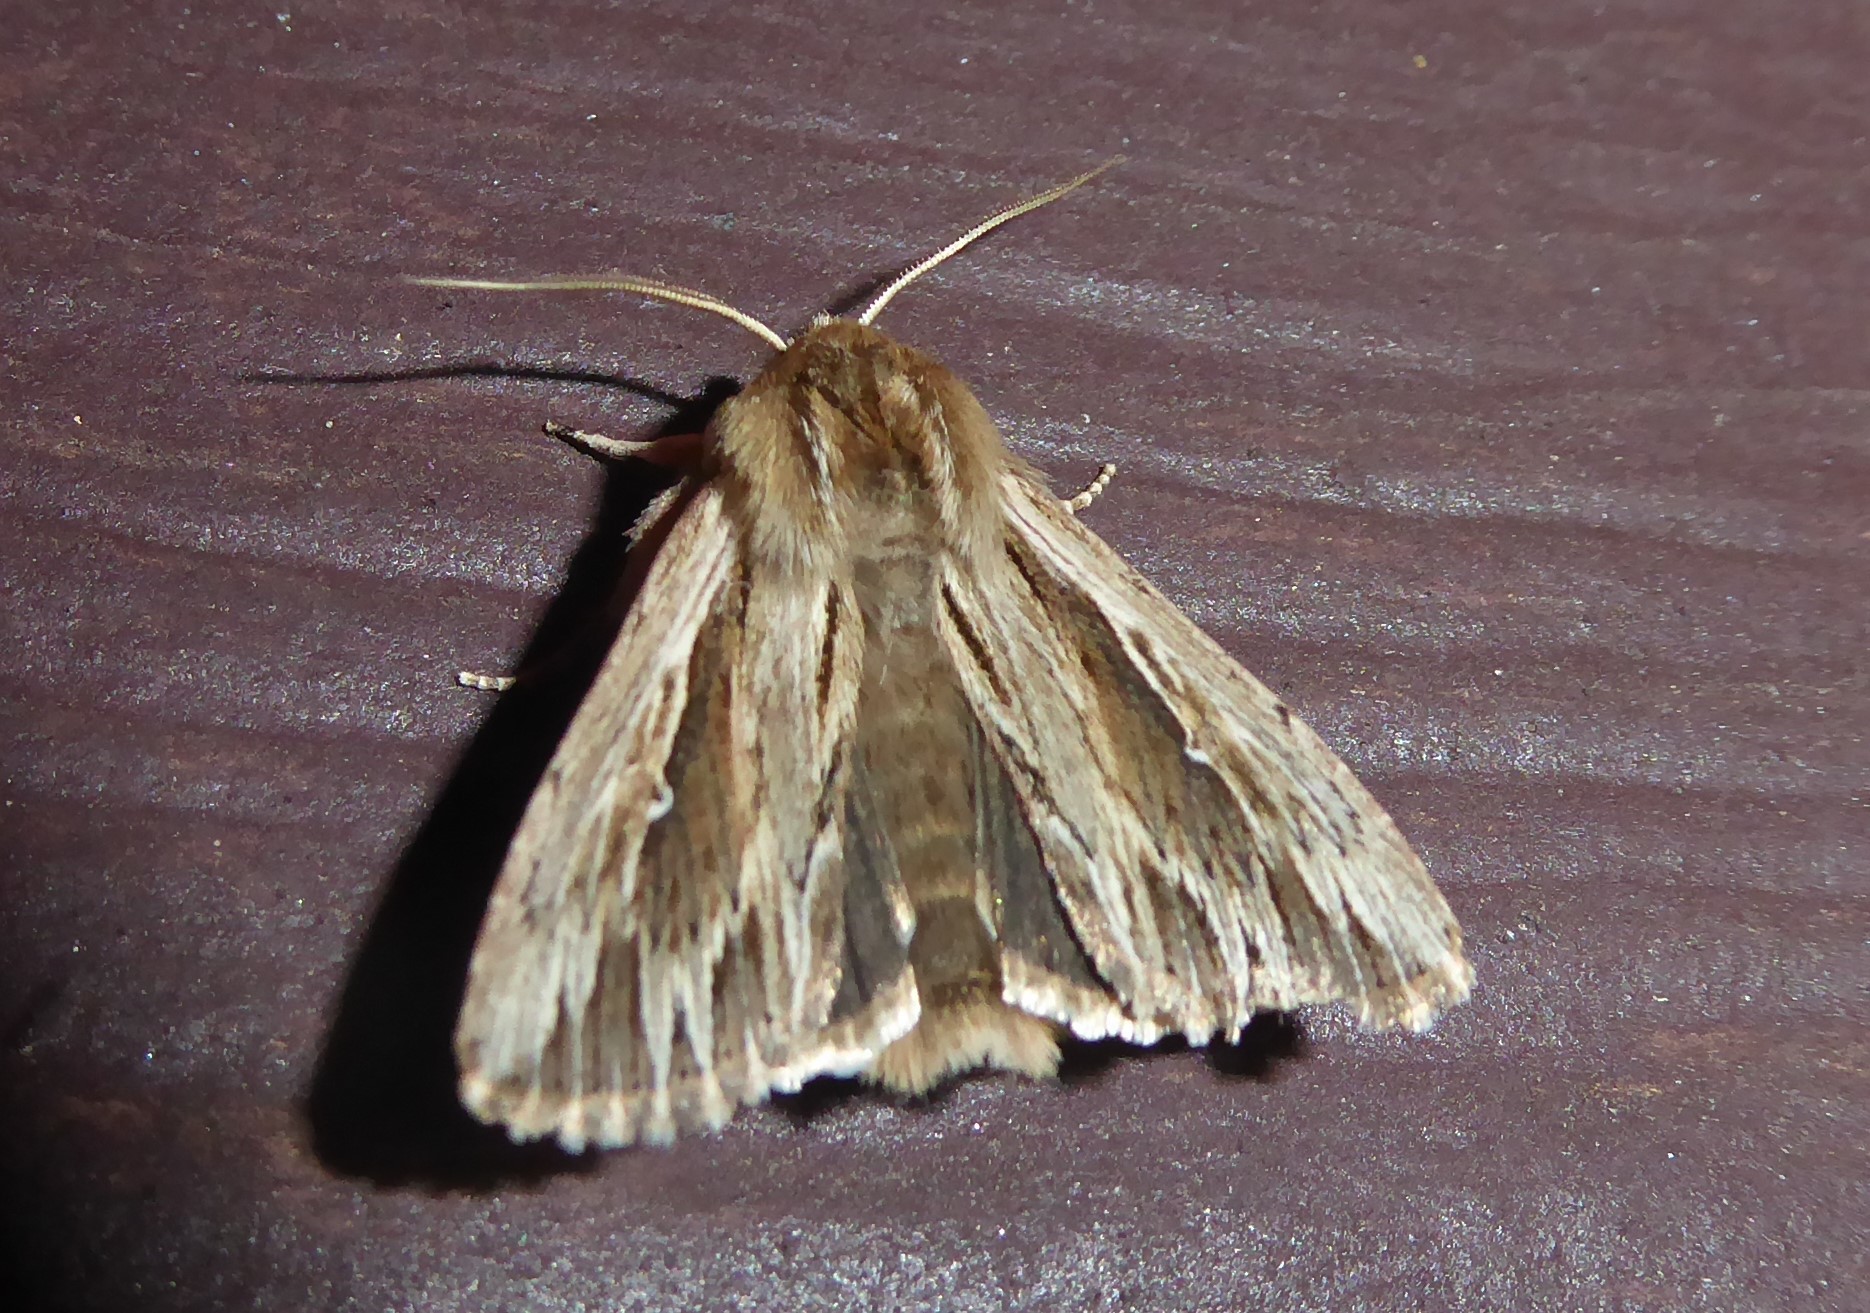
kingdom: Animalia
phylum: Arthropoda
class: Insecta
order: Lepidoptera
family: Noctuidae
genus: Persectania
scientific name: Persectania aversa
